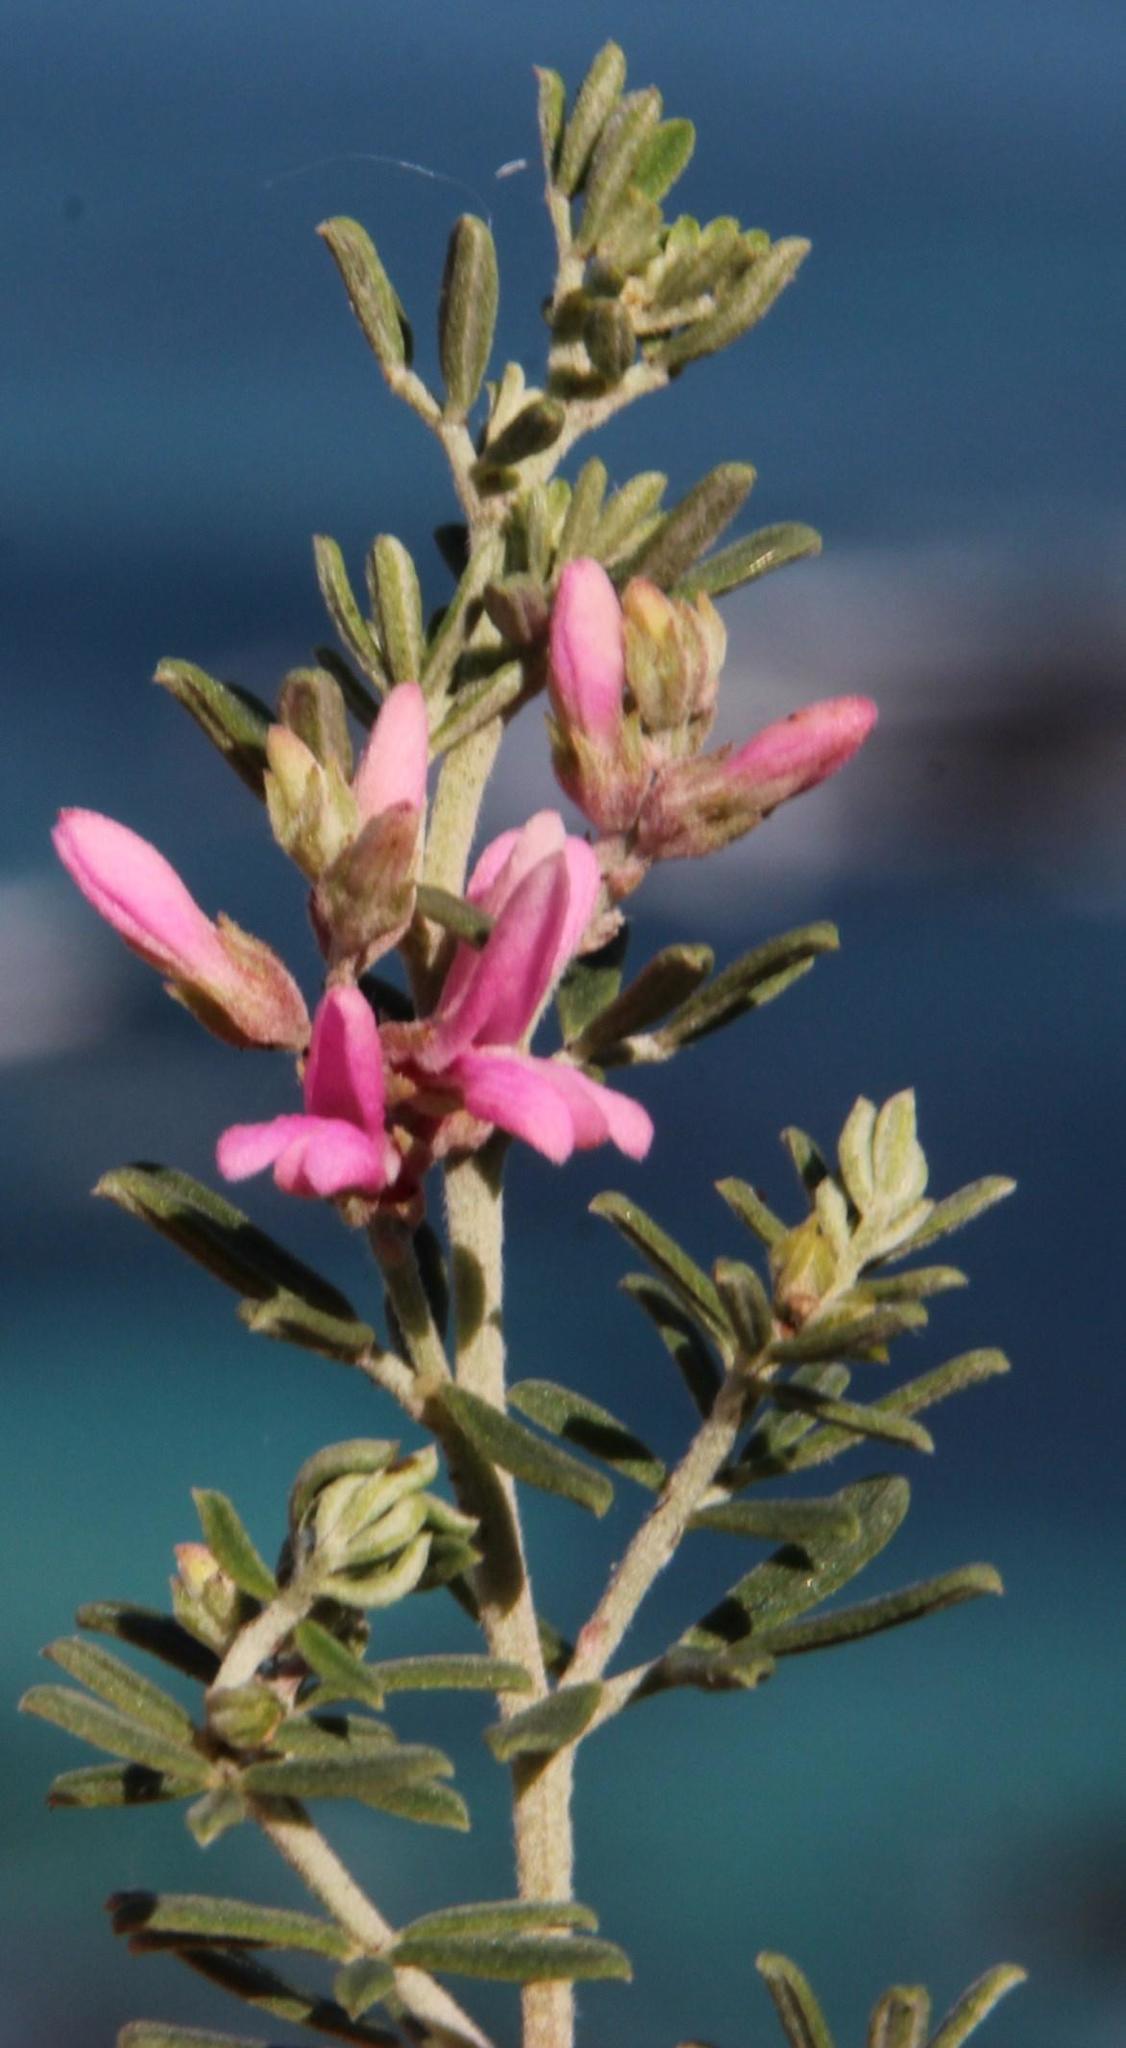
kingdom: Plantae
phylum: Tracheophyta
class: Magnoliopsida
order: Fabales
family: Fabaceae
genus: Indigofera
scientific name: Indigofera brachystachya
